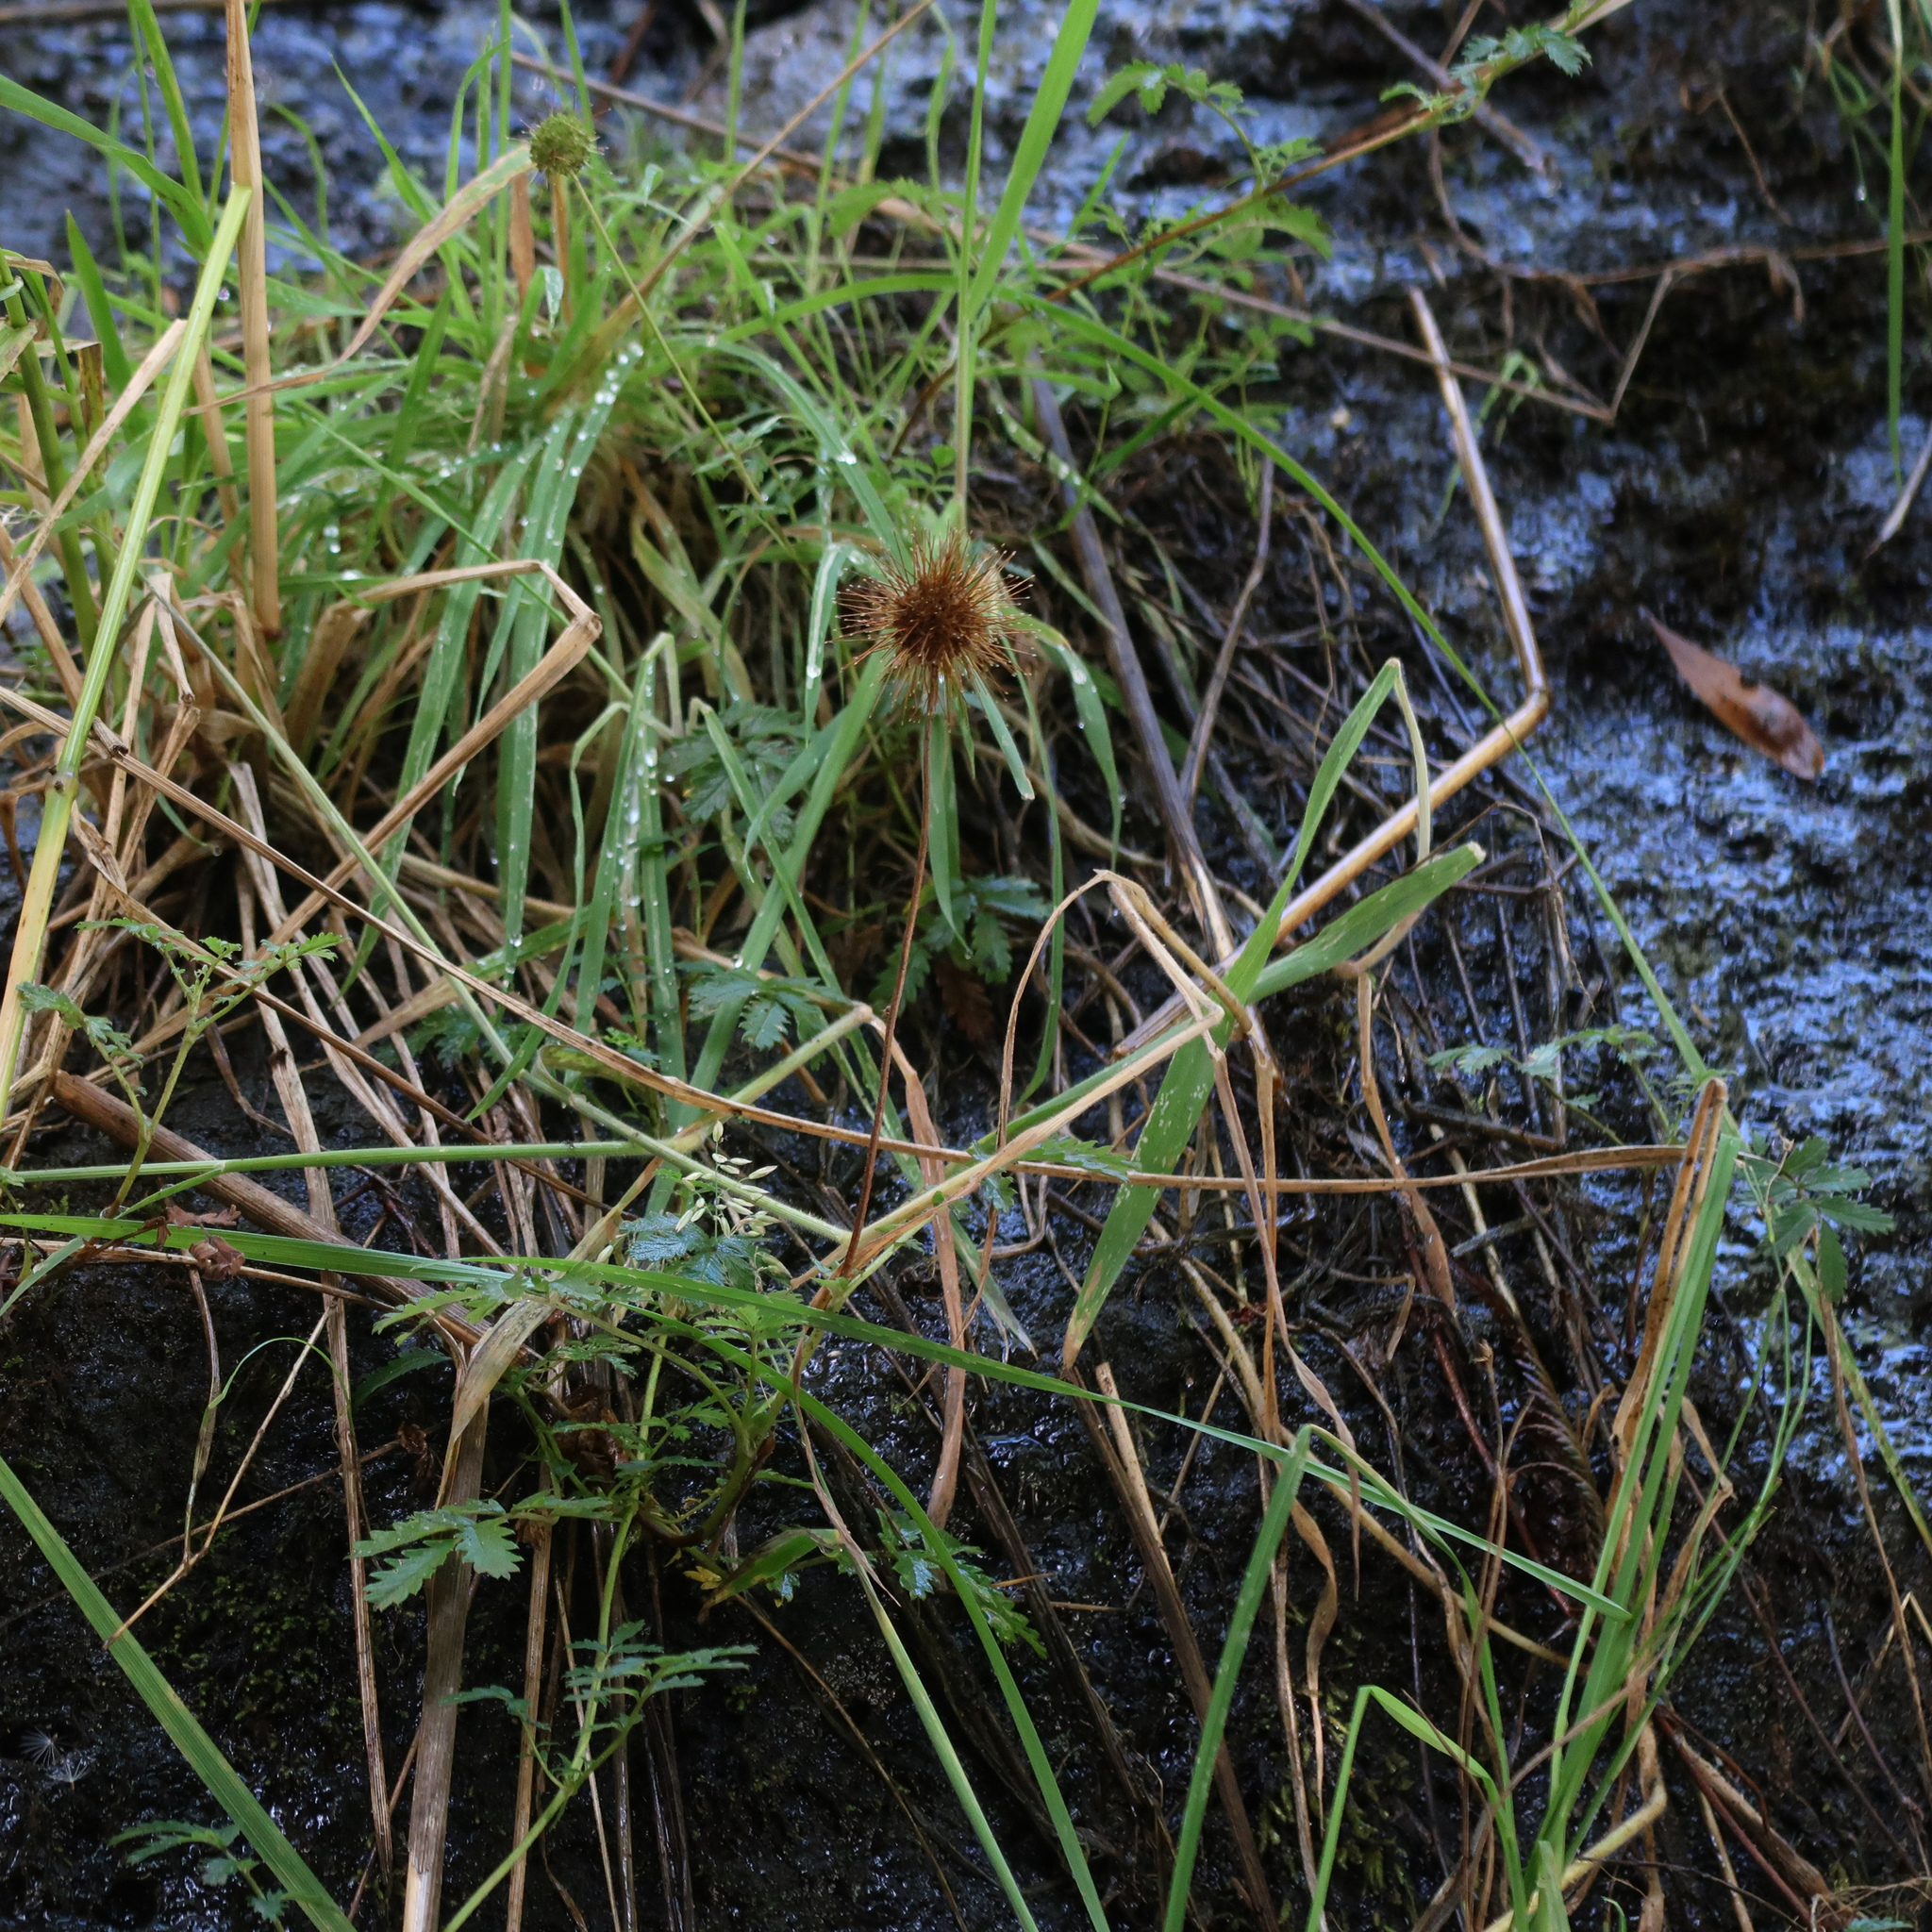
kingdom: Plantae
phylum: Tracheophyta
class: Magnoliopsida
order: Rosales
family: Rosaceae
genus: Acaena
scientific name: Acaena novae-zelandiae
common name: Pirri-pirri-bur
